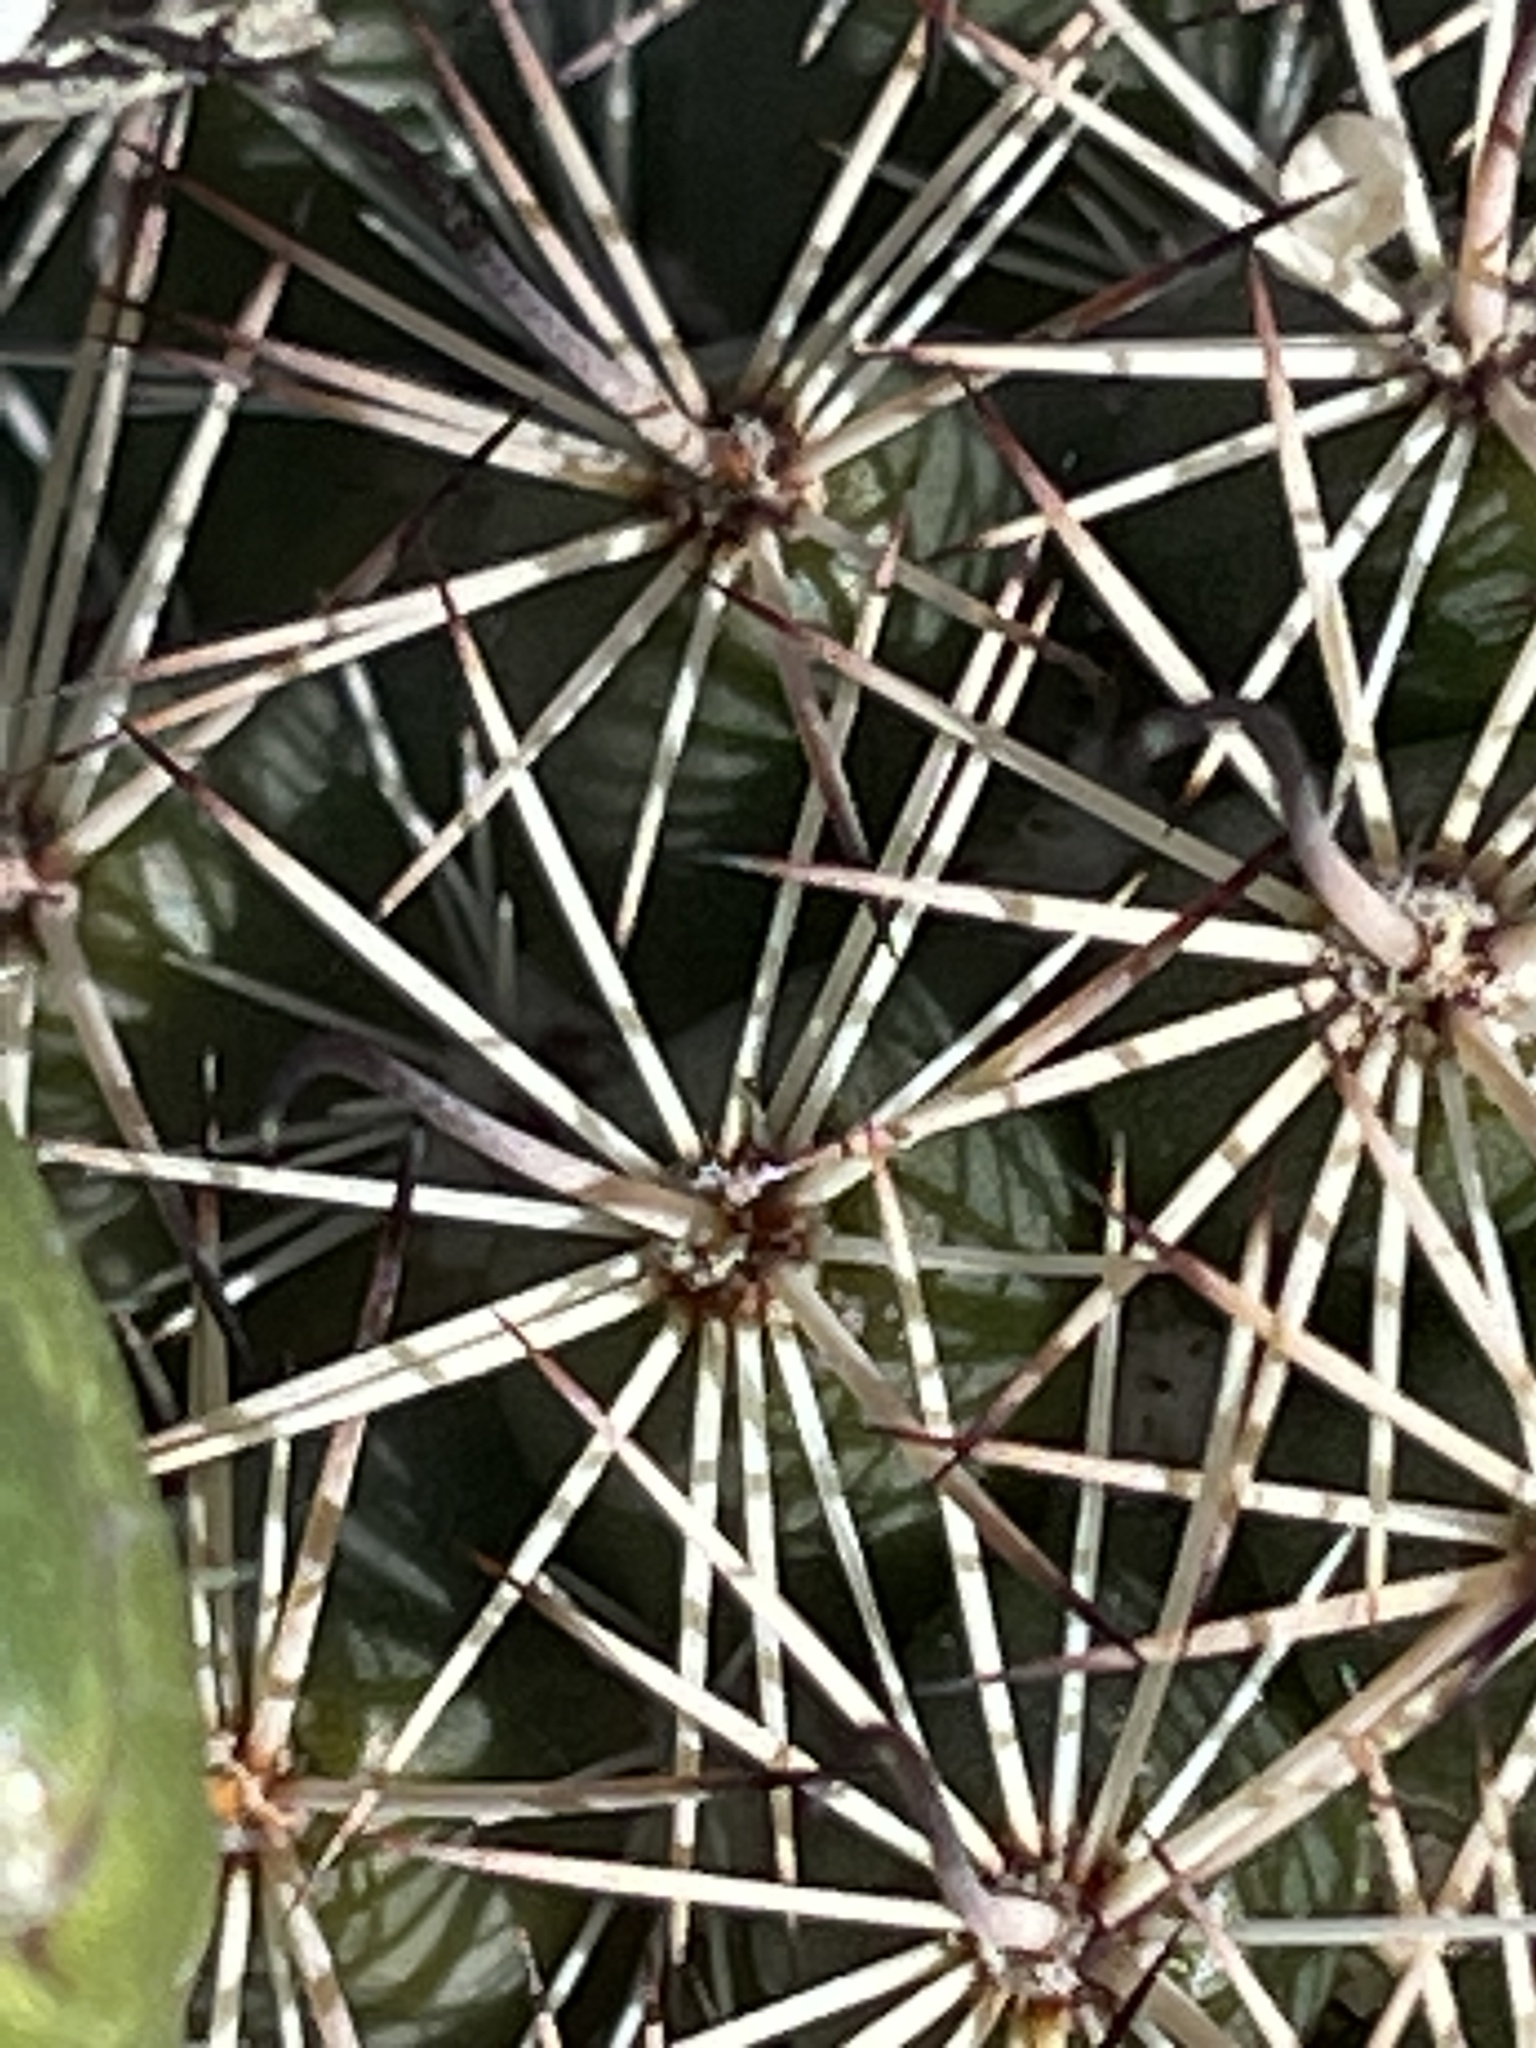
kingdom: Plantae
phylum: Tracheophyta
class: Magnoliopsida
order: Caryophyllales
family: Cactaceae
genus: Cochemiea
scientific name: Cochemiea dioica
